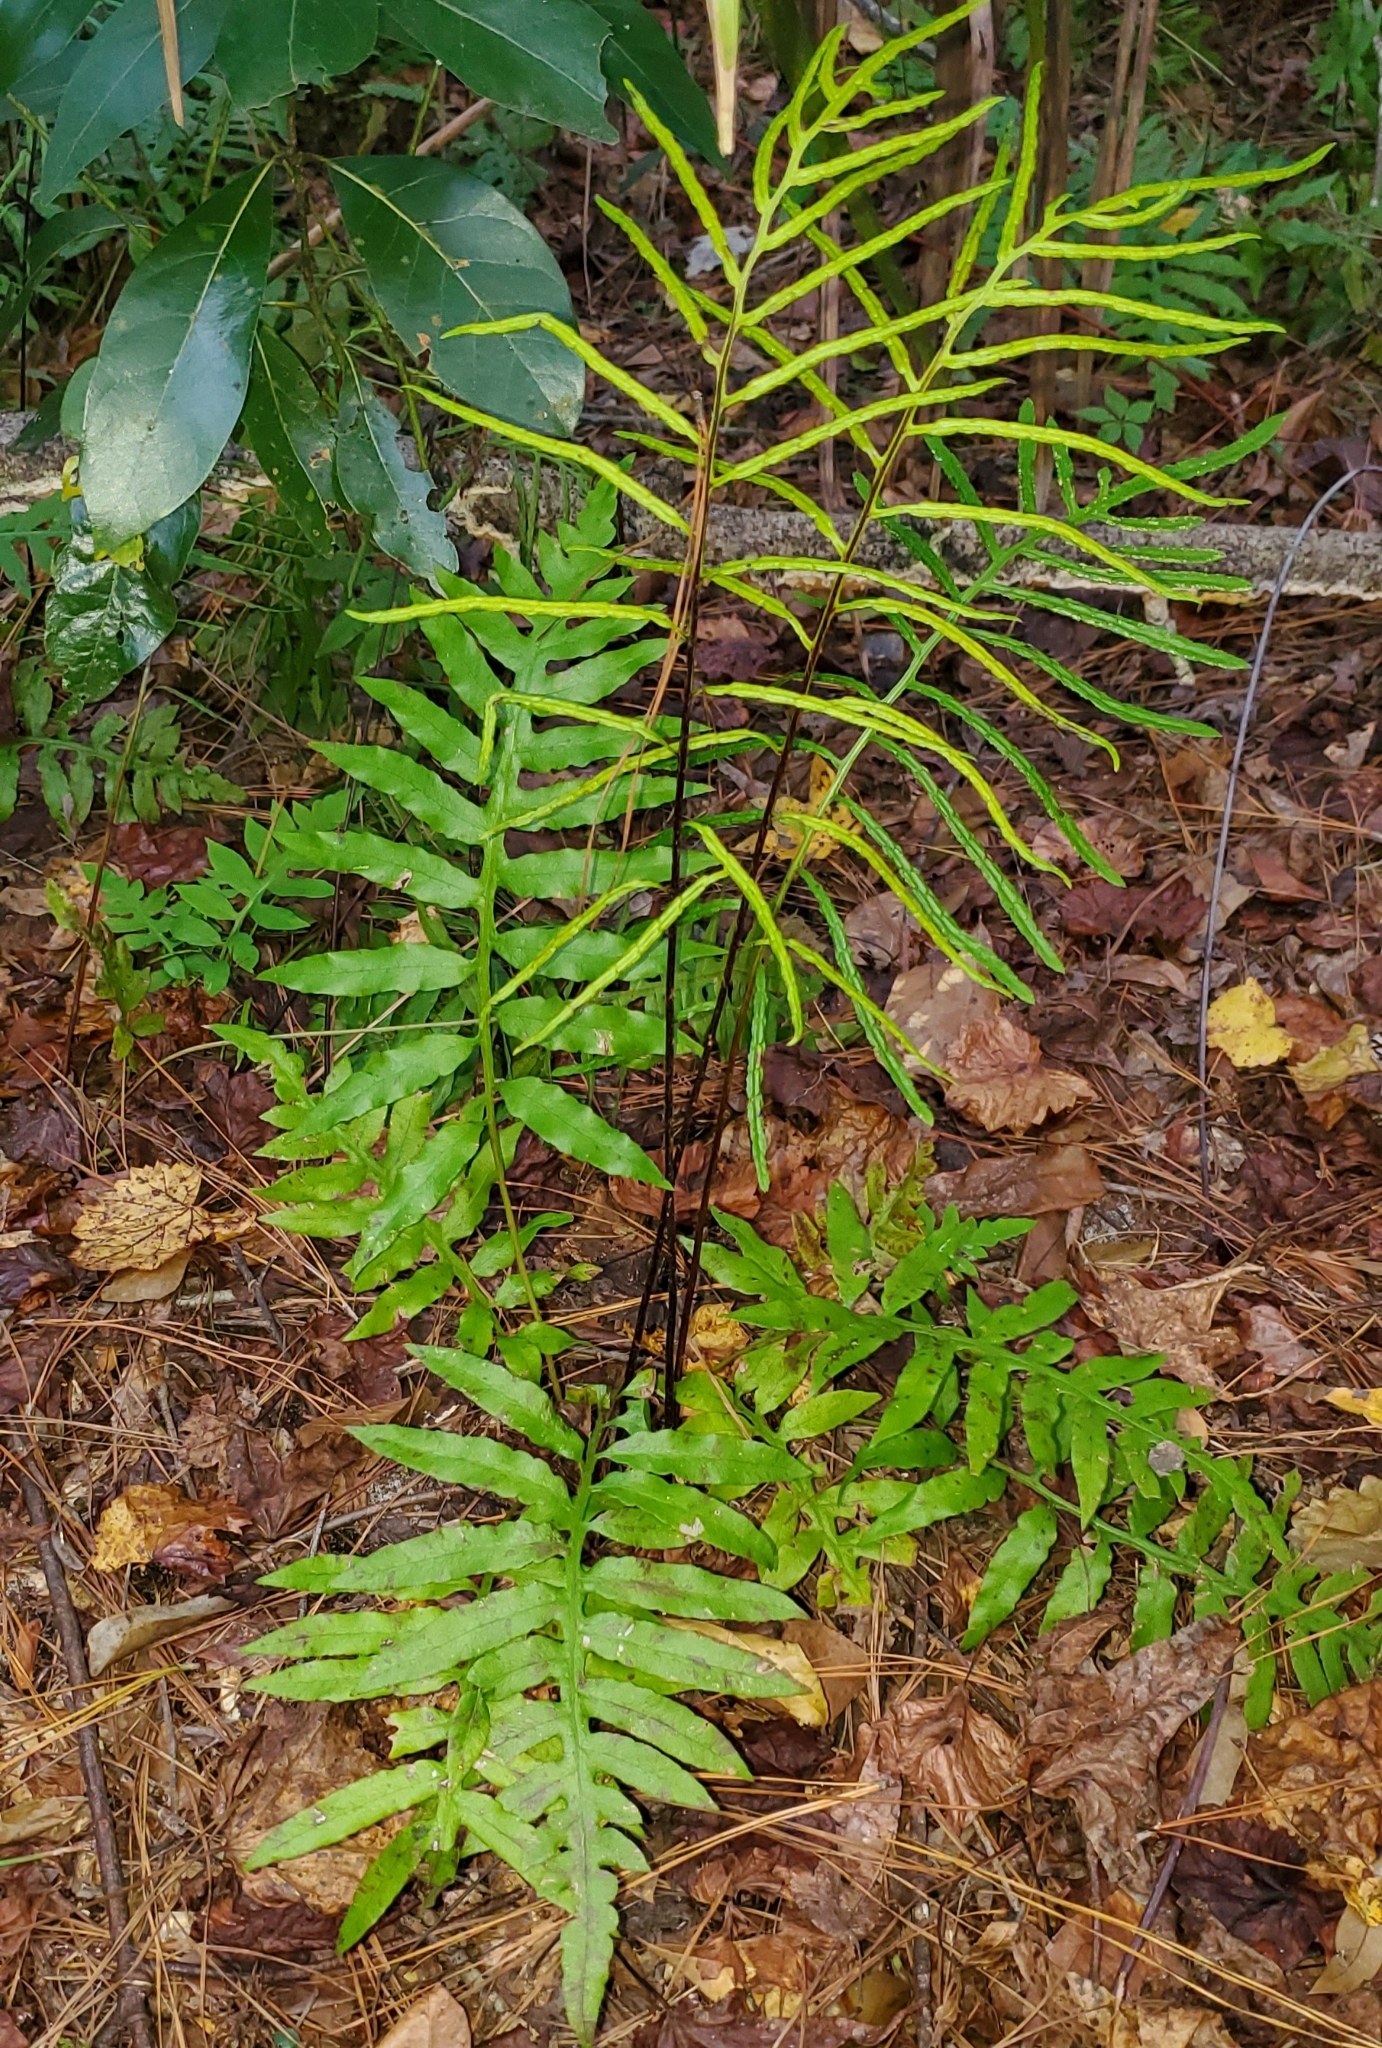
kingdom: Plantae
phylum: Tracheophyta
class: Polypodiopsida
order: Polypodiales
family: Blechnaceae
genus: Lorinseria
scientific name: Lorinseria areolata
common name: Dwarf chain fern
